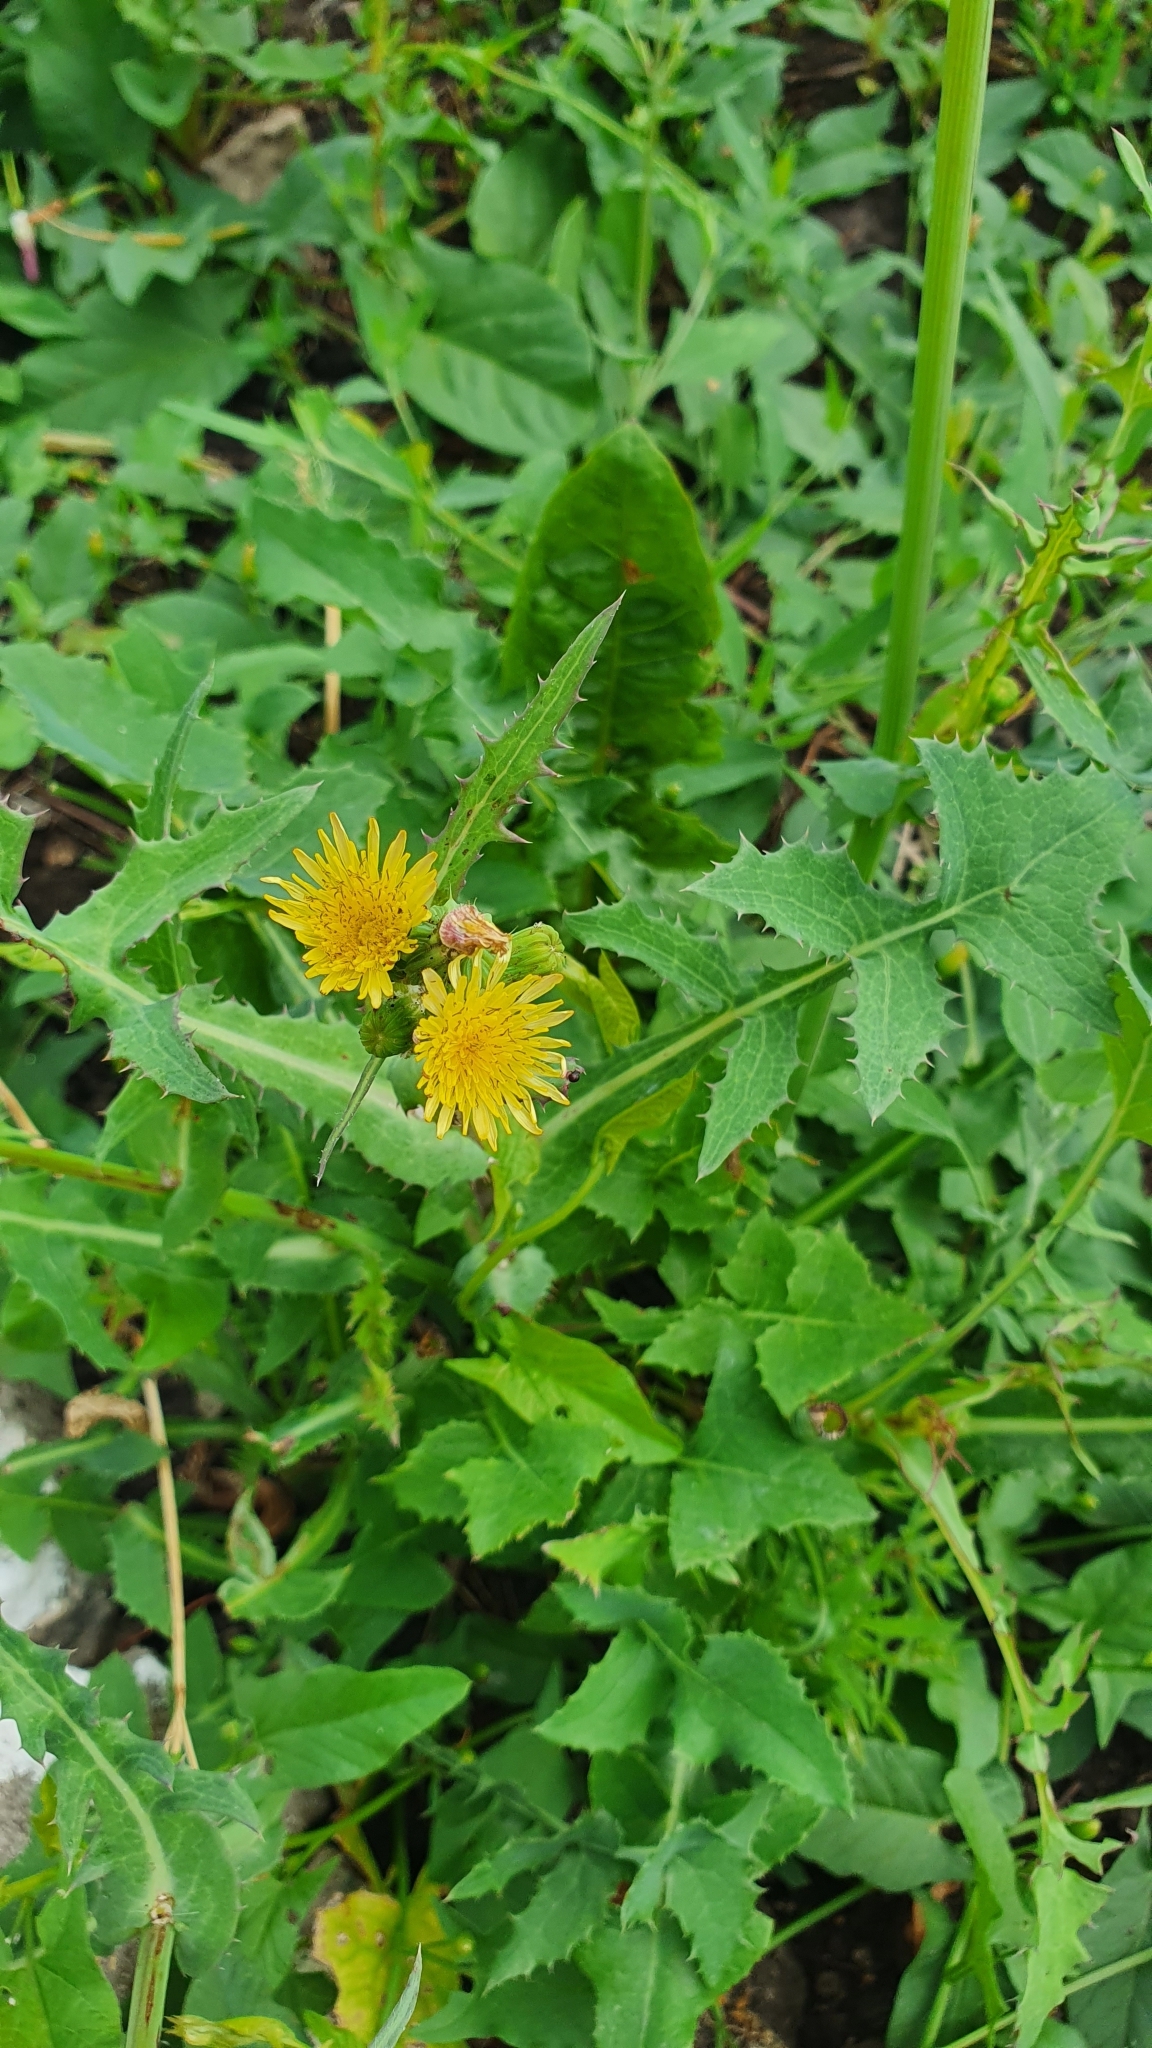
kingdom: Plantae
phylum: Tracheophyta
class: Magnoliopsida
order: Asterales
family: Asteraceae
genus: Sonchus
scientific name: Sonchus oleraceus
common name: Common sowthistle
